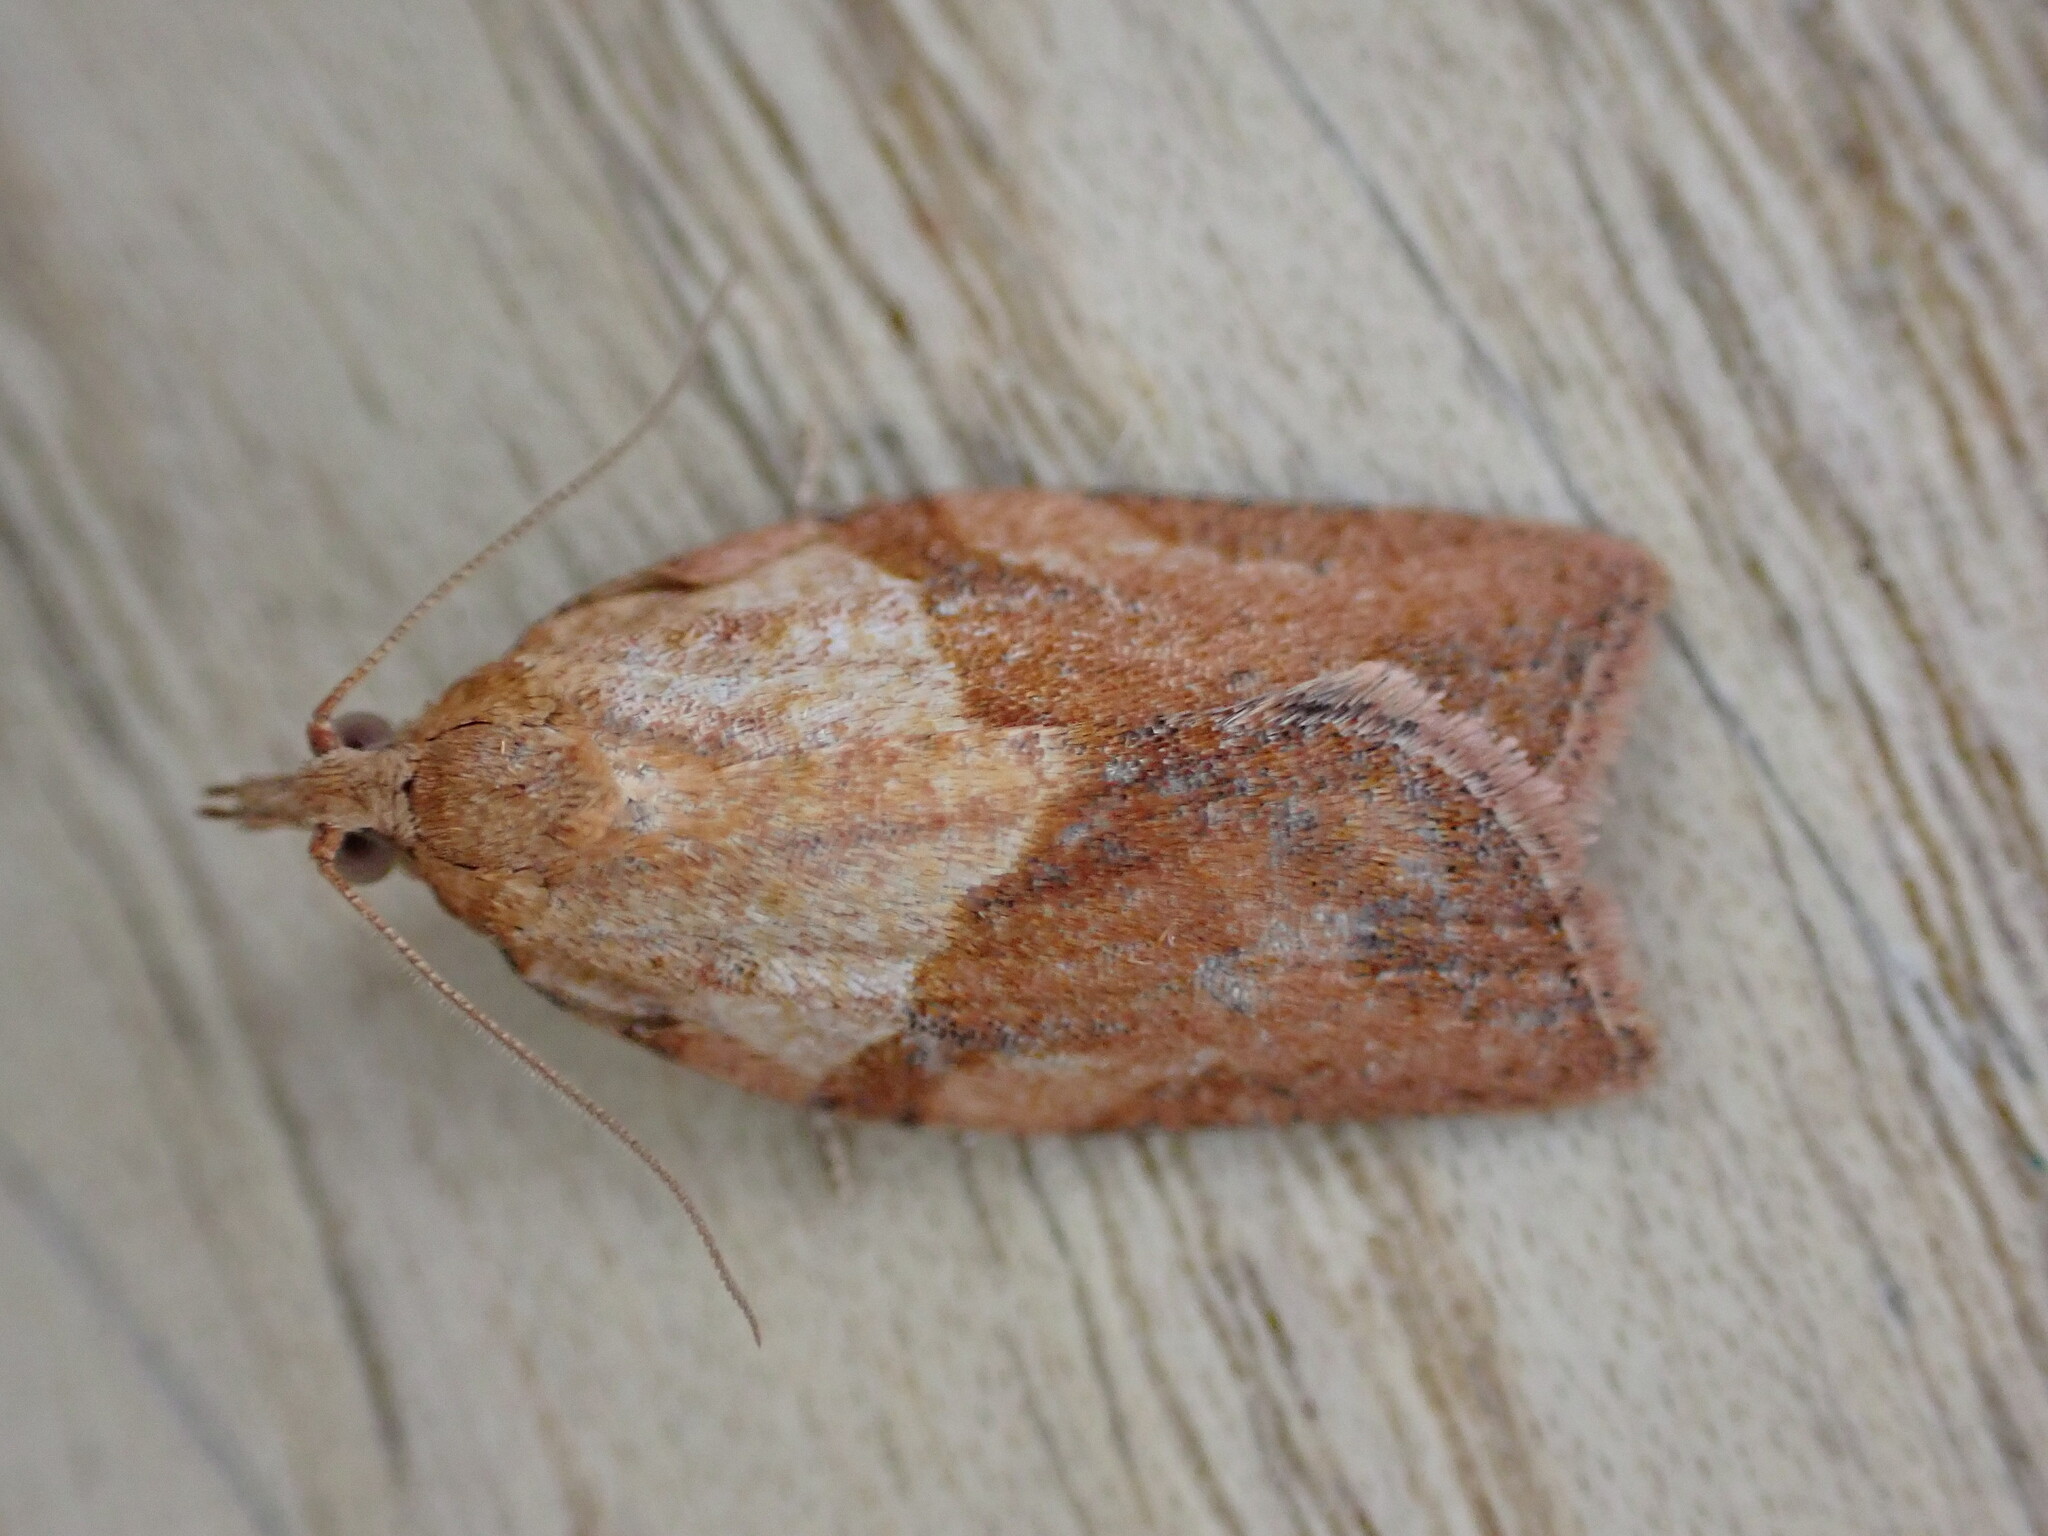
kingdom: Animalia
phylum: Arthropoda
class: Insecta
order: Lepidoptera
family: Tortricidae
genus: Epiphyas
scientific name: Epiphyas postvittana
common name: Light brown apple moth
